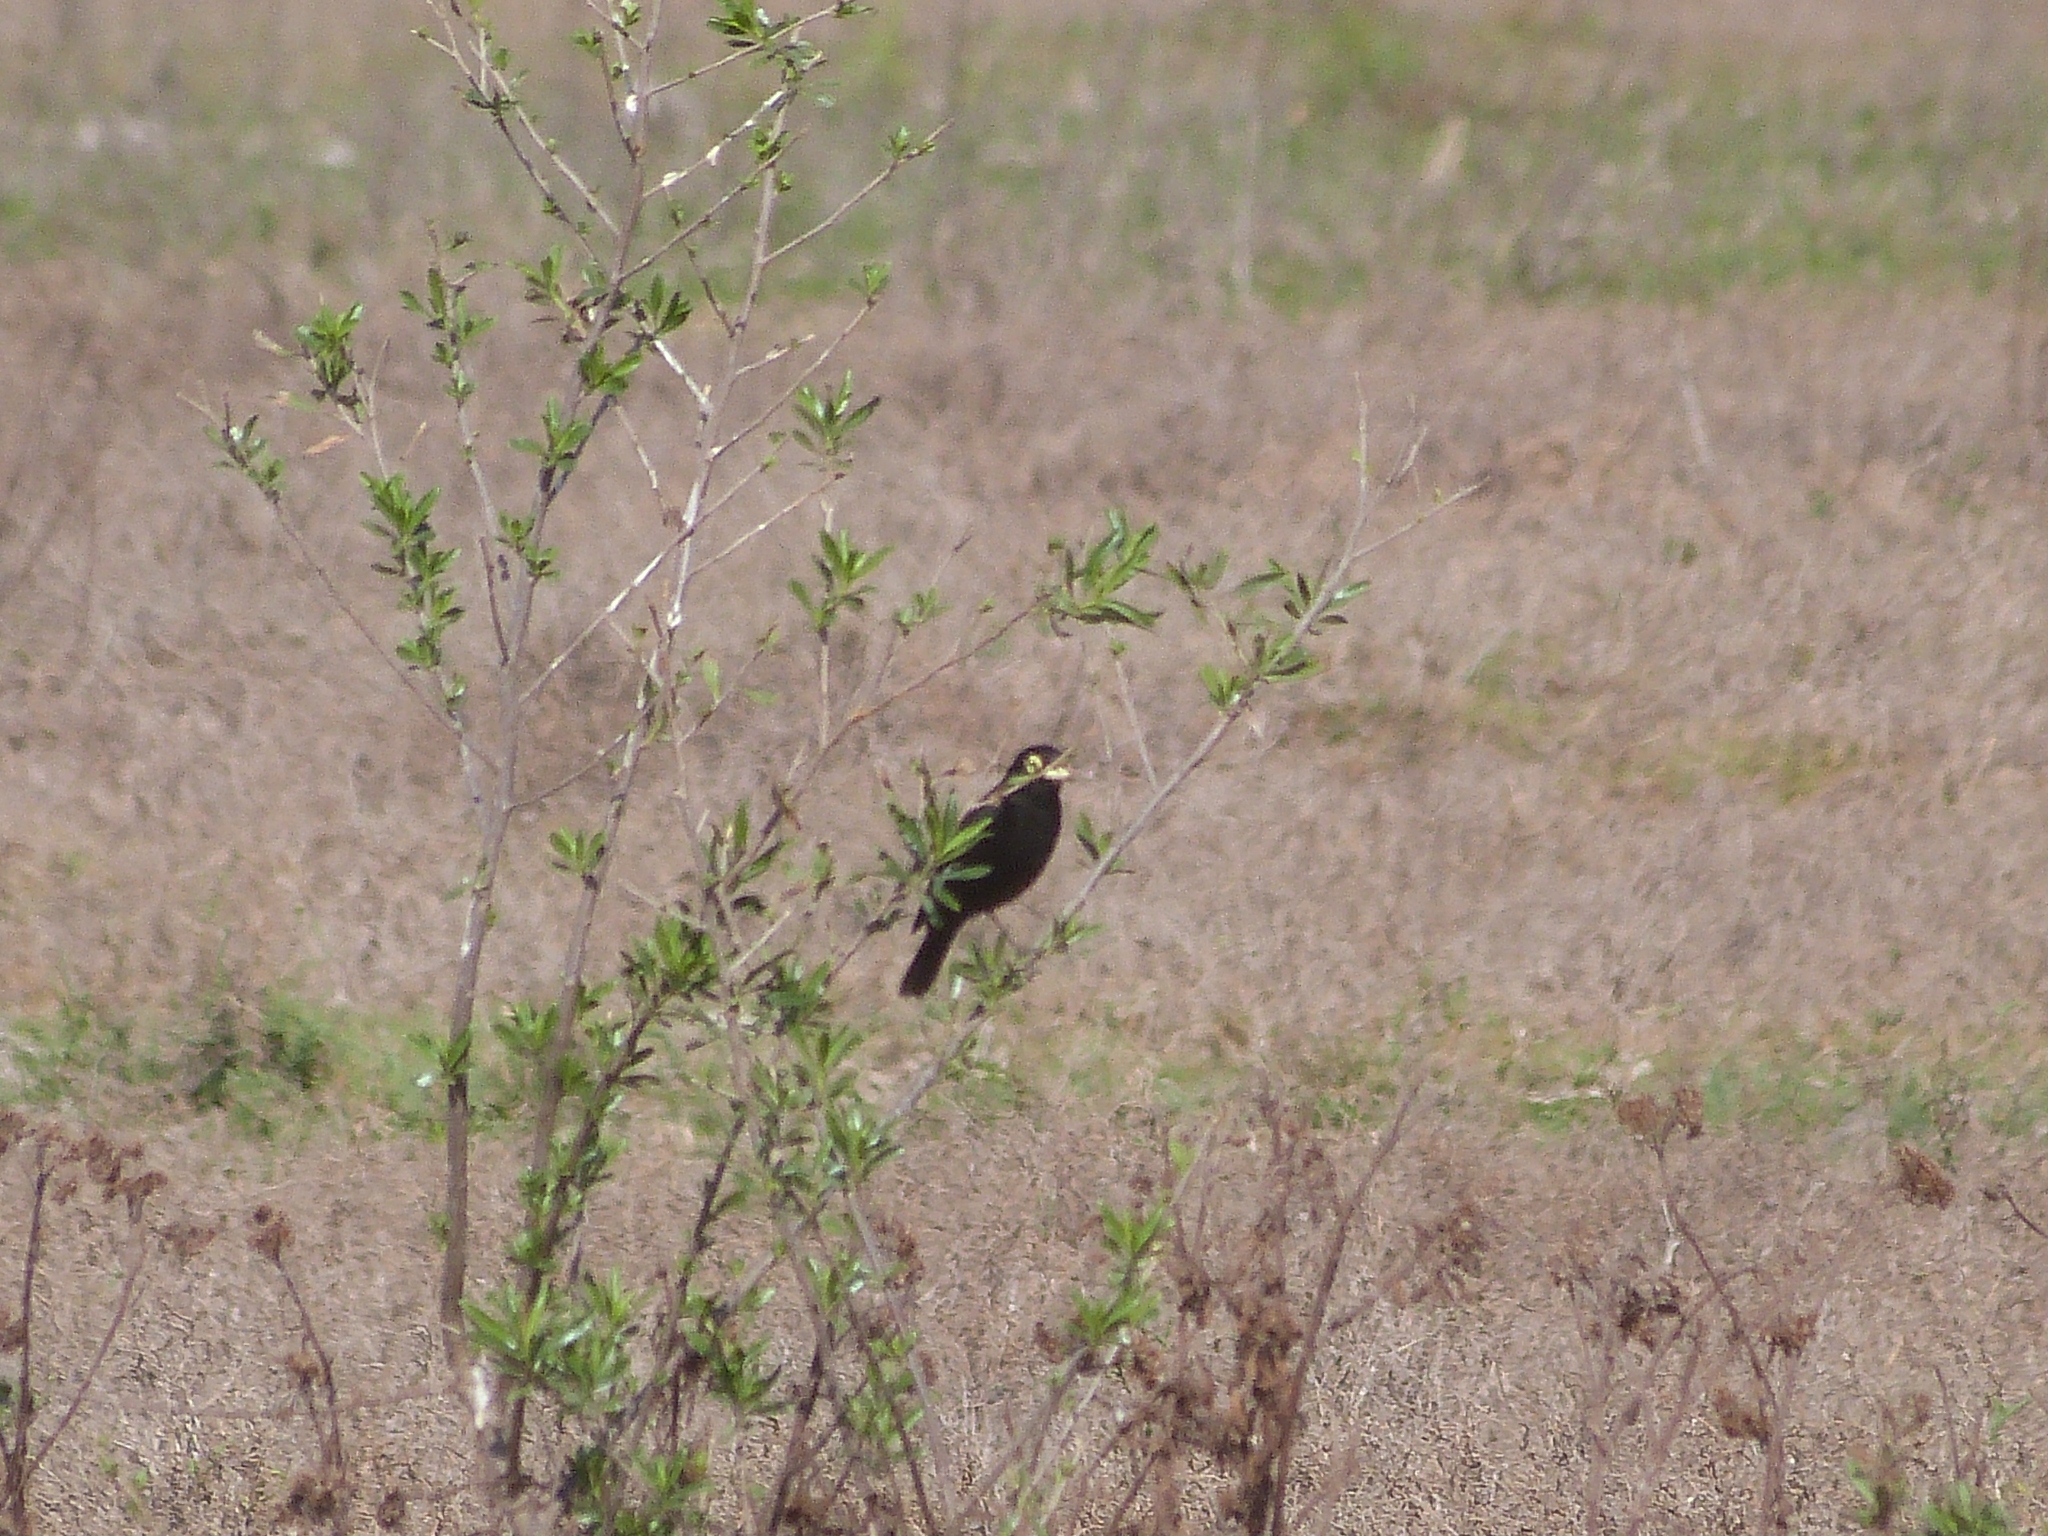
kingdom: Animalia
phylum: Chordata
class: Aves
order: Passeriformes
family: Tyrannidae
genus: Hymenops
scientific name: Hymenops perspicillatus
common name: Spectacled tyrant
